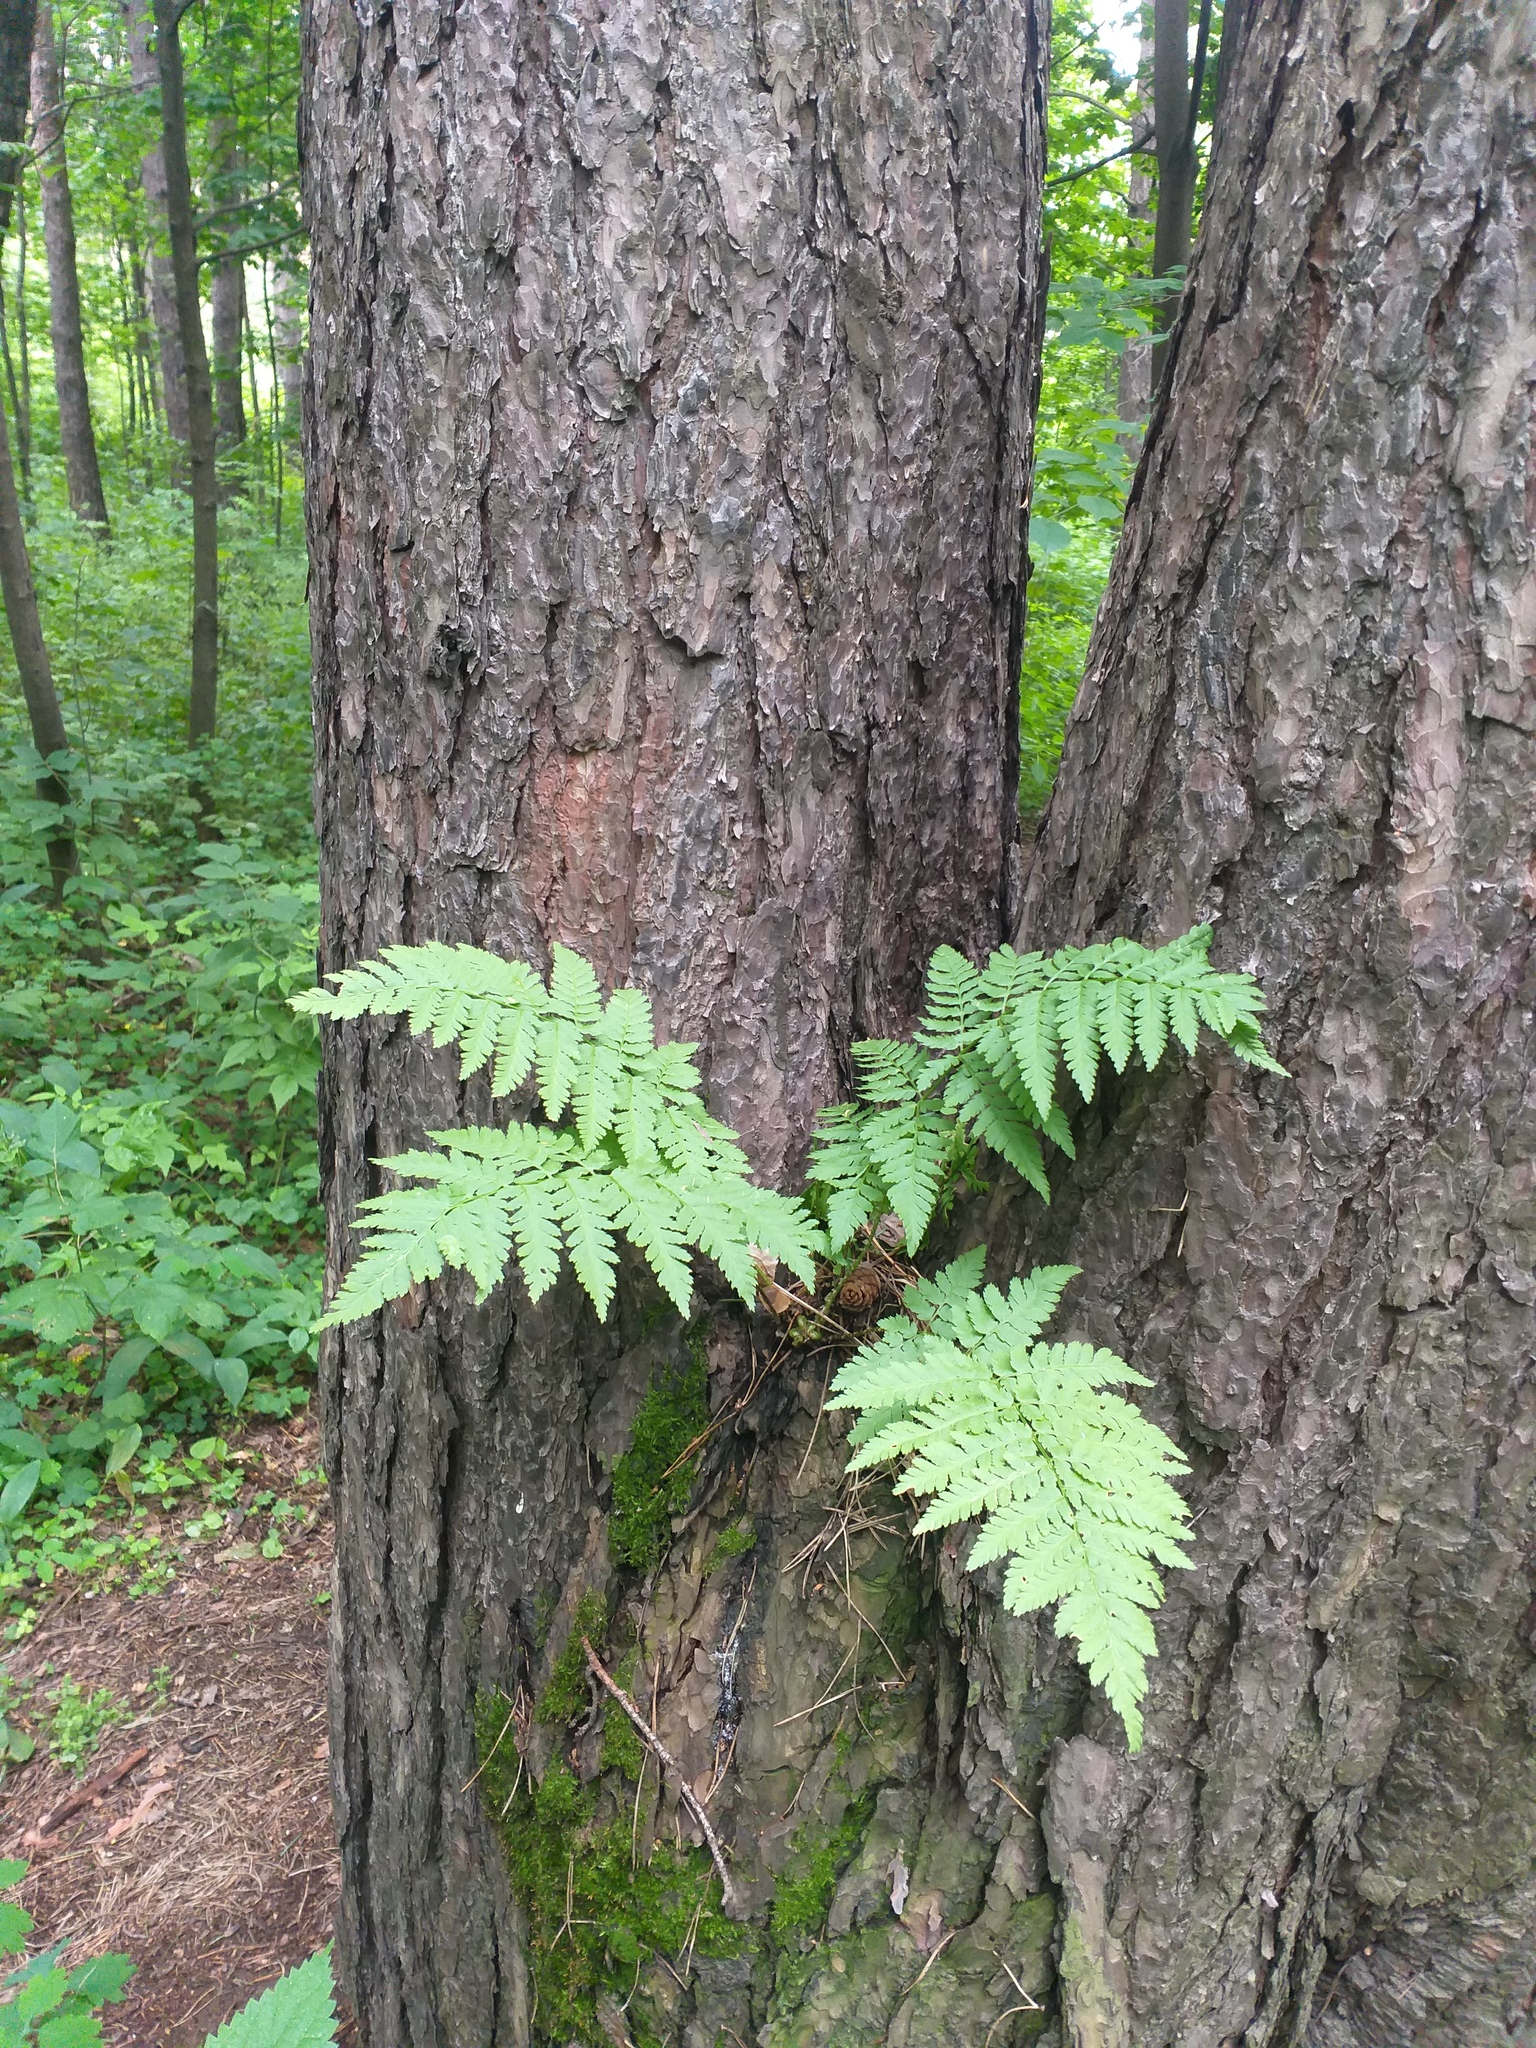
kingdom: Plantae
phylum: Tracheophyta
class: Polypodiopsida
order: Polypodiales
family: Dryopteridaceae
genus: Dryopteris
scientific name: Dryopteris carthusiana
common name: Narrow buckler-fern
